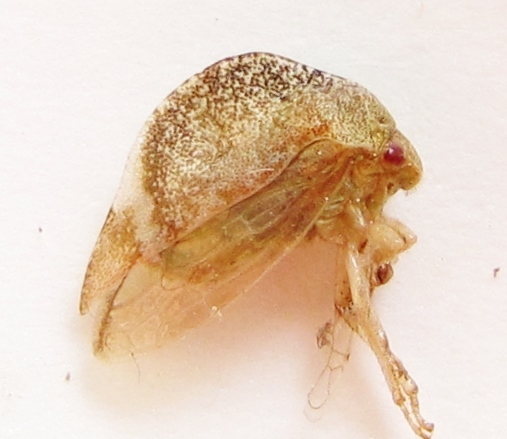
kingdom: Animalia
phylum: Arthropoda
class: Insecta
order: Hemiptera
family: Membracidae
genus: Cyrtolobus
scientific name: Cyrtolobus arcuata
